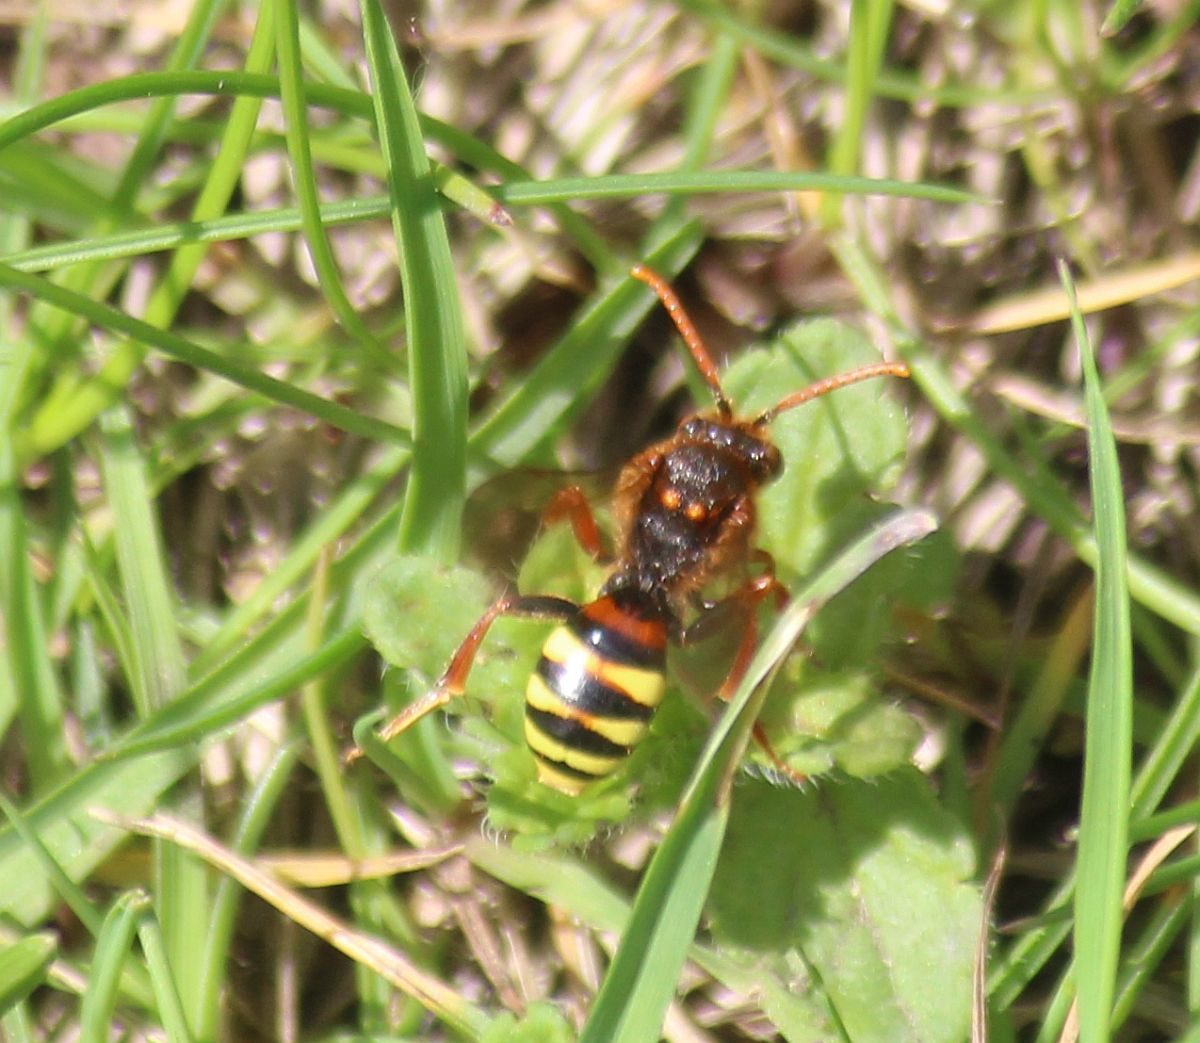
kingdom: Animalia
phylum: Arthropoda
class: Insecta
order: Hymenoptera
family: Apidae
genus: Nomada
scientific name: Nomada lathburiana
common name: Lathbury's nomad bee
